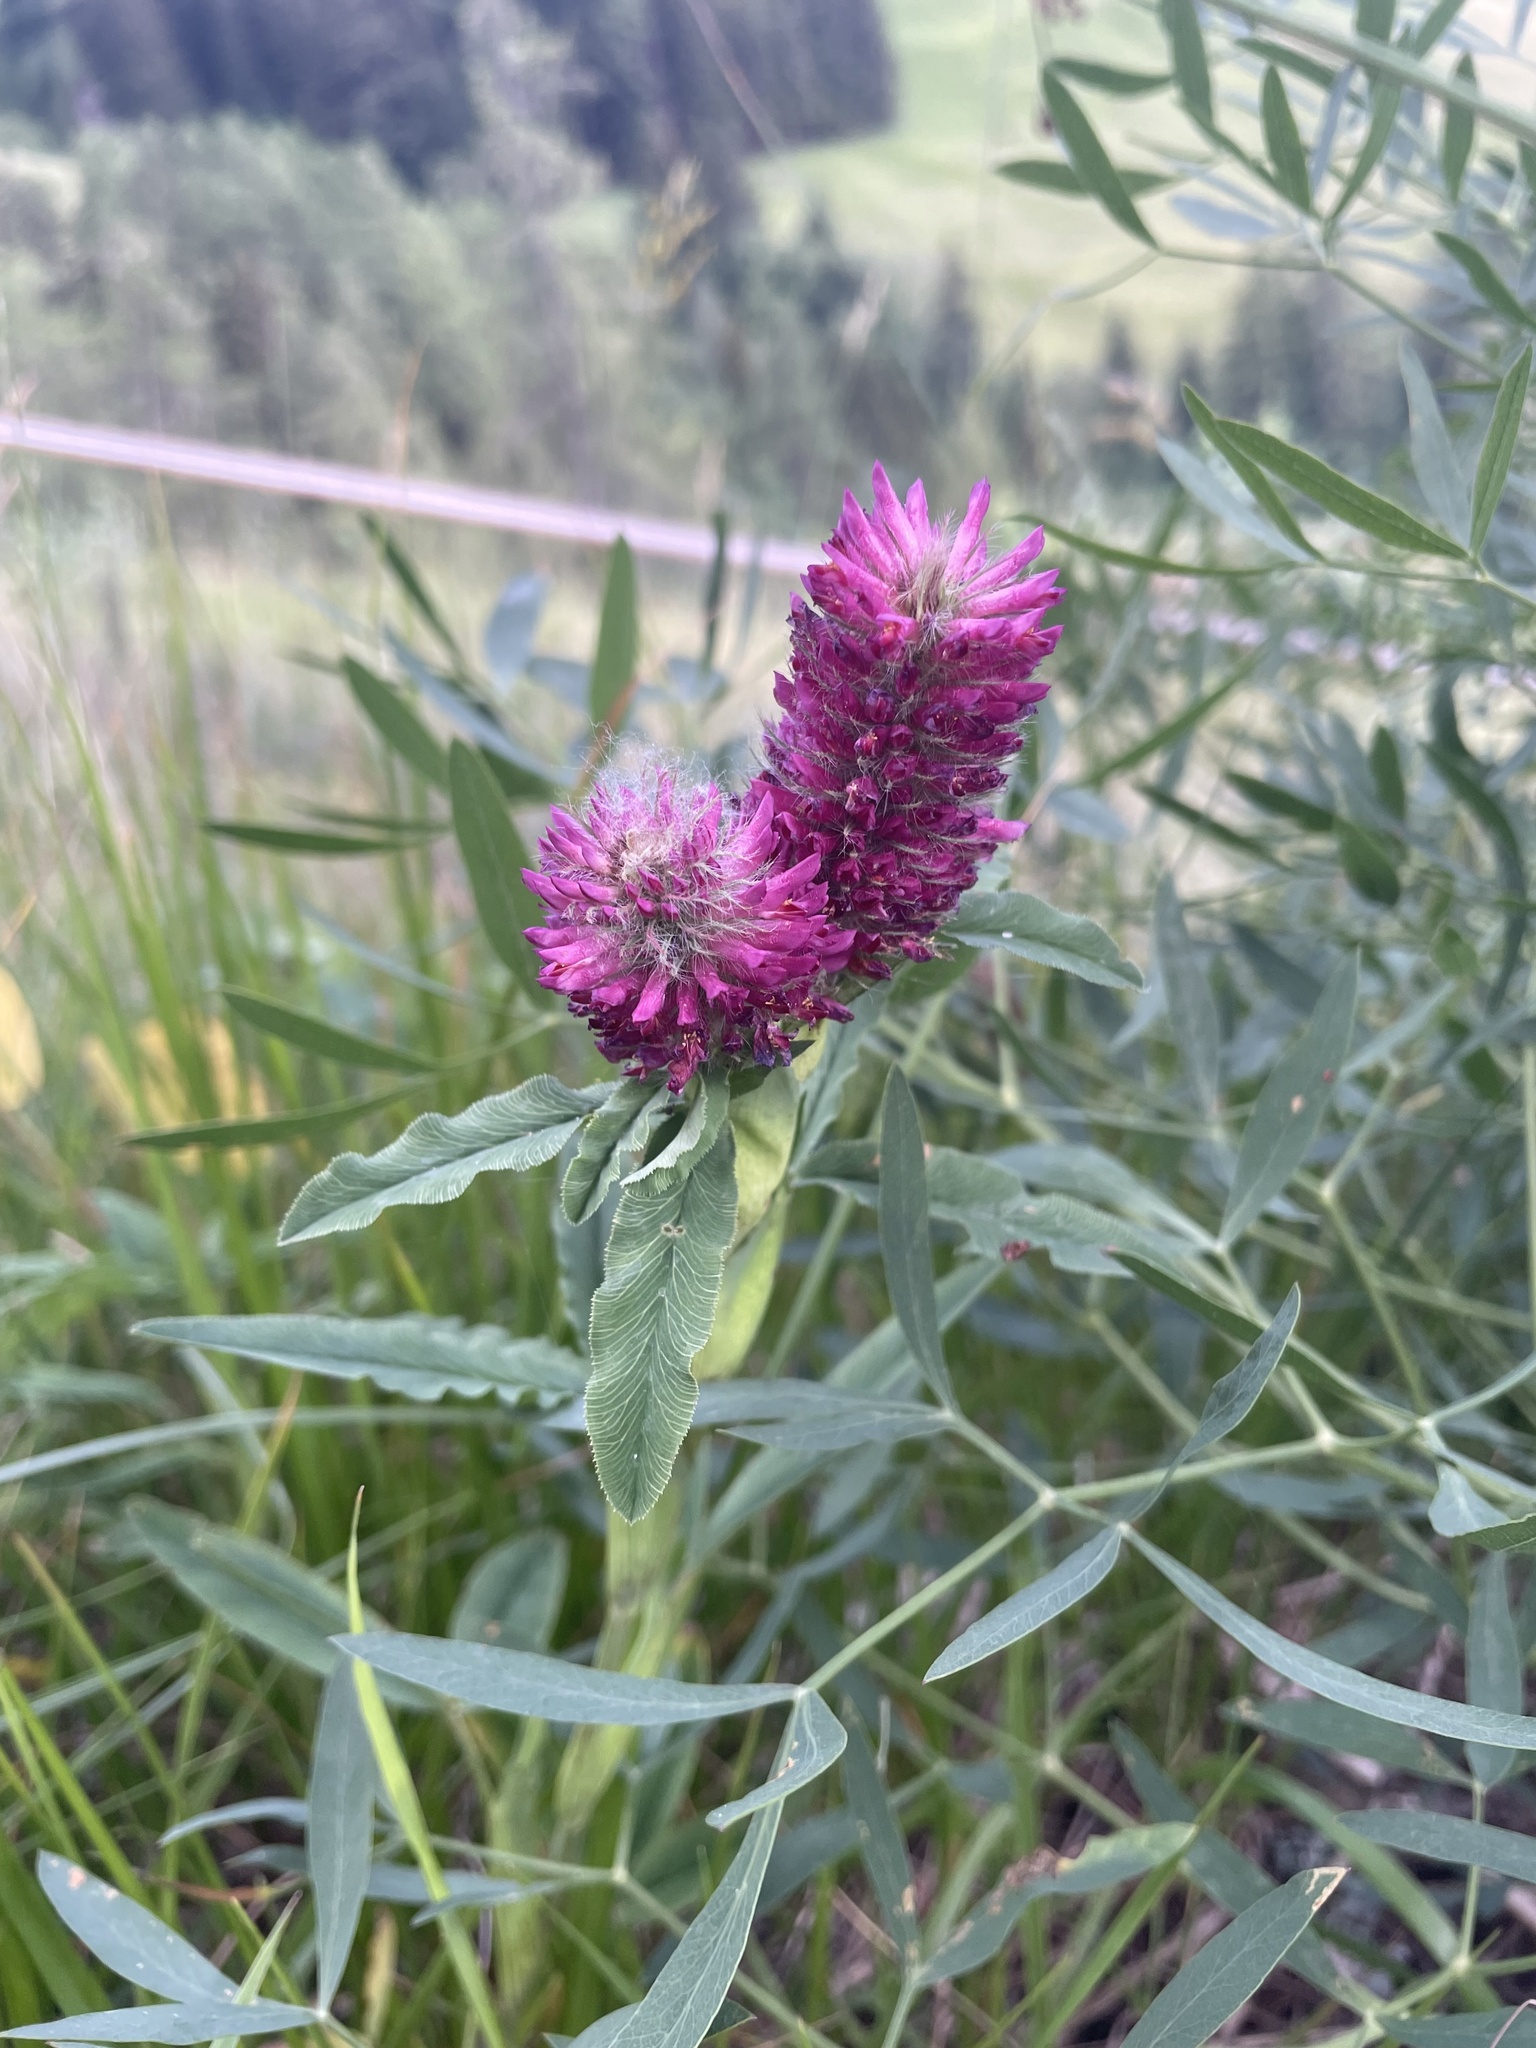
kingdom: Plantae
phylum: Tracheophyta
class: Magnoliopsida
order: Fabales
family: Fabaceae
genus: Trifolium
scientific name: Trifolium rubens
